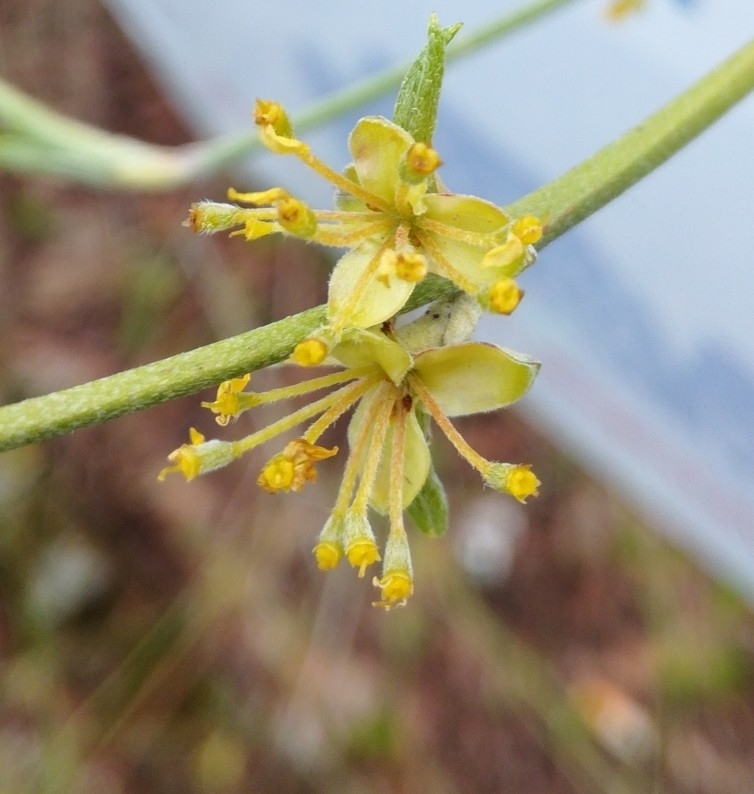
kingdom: Plantae
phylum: Tracheophyta
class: Magnoliopsida
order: Cornales
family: Cornaceae
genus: Cornus
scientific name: Cornus mas
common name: Cornelian-cherry
